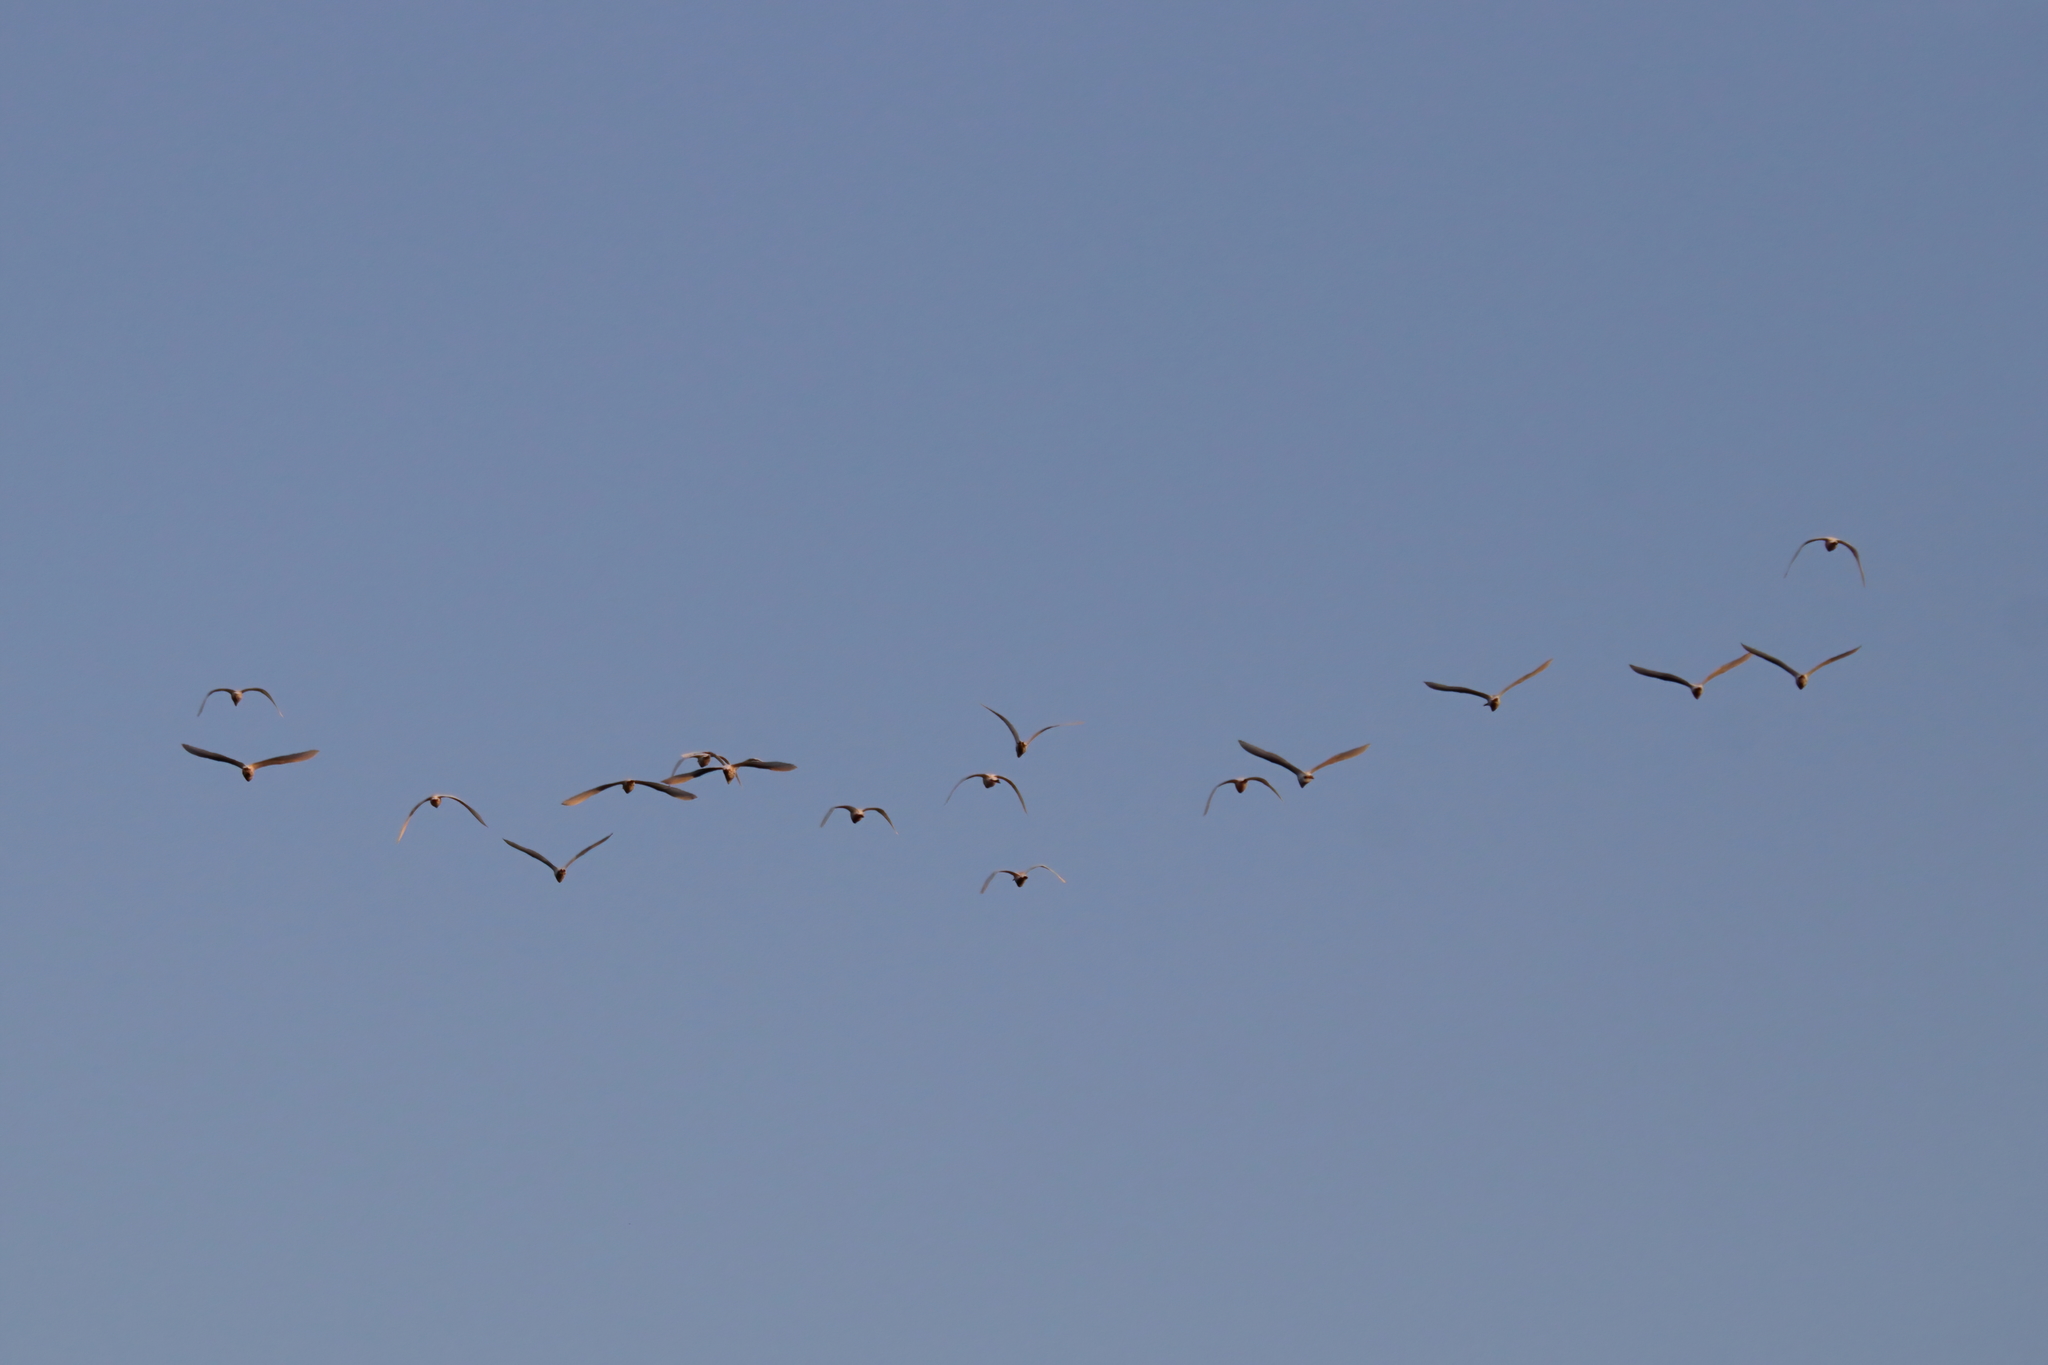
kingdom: Animalia
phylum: Chordata
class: Aves
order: Pelecaniformes
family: Ardeidae
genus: Bubulcus
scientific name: Bubulcus ibis
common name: Cattle egret
